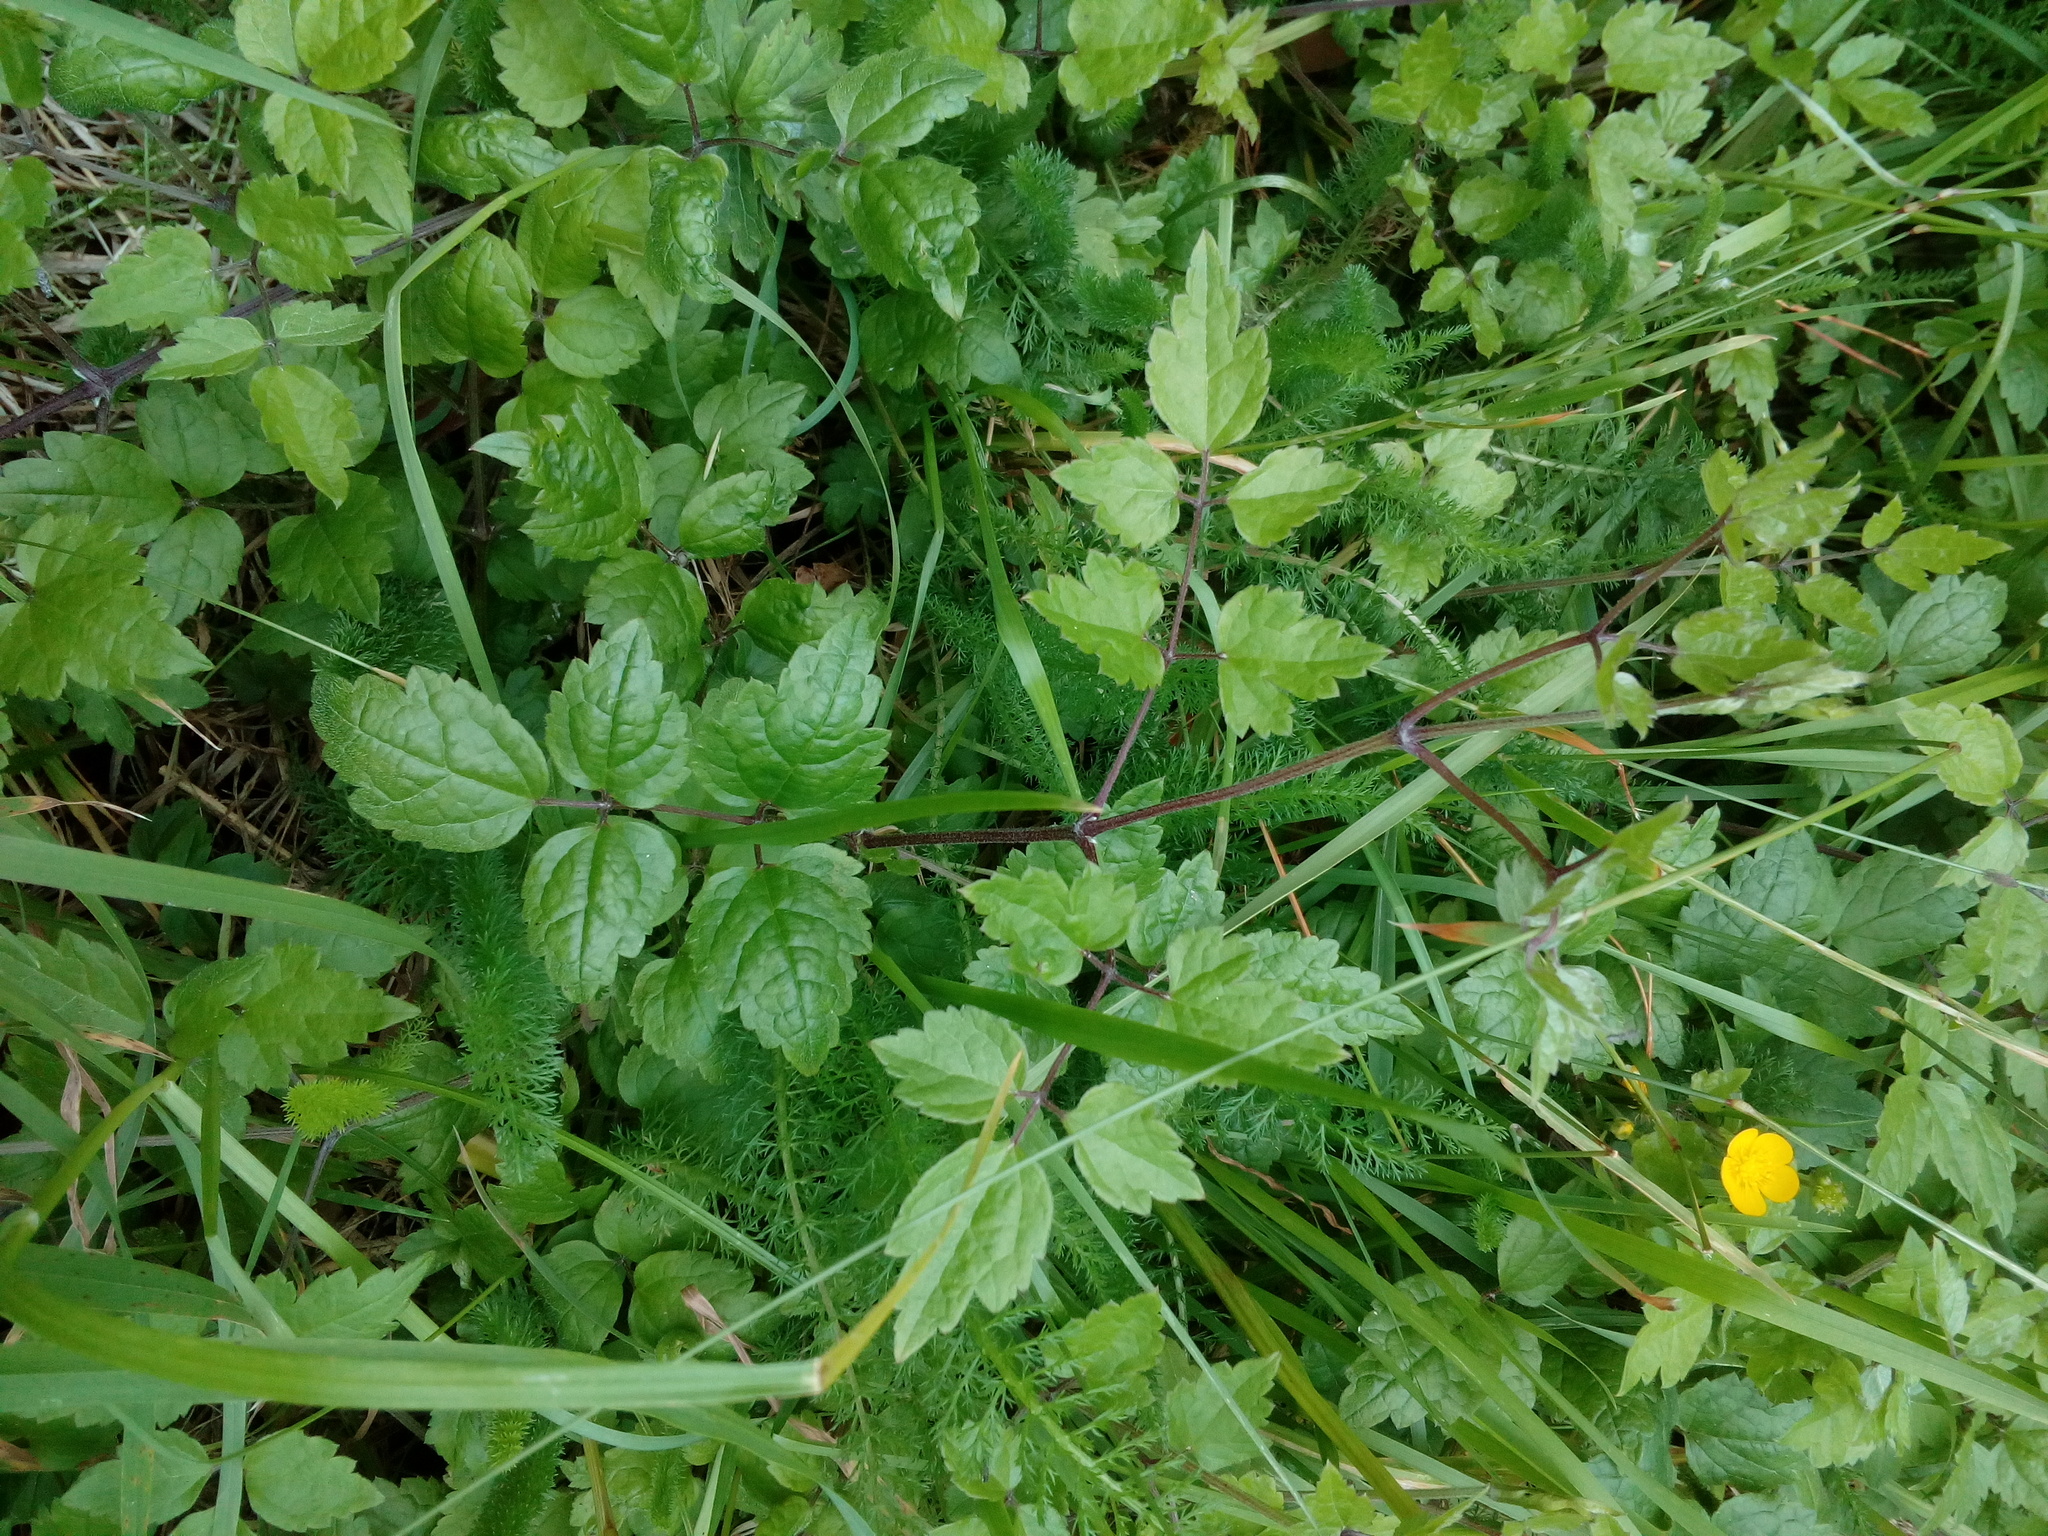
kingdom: Plantae
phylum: Tracheophyta
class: Magnoliopsida
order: Ranunculales
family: Ranunculaceae
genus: Clematis
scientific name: Clematis vitalba
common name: Evergreen clematis
